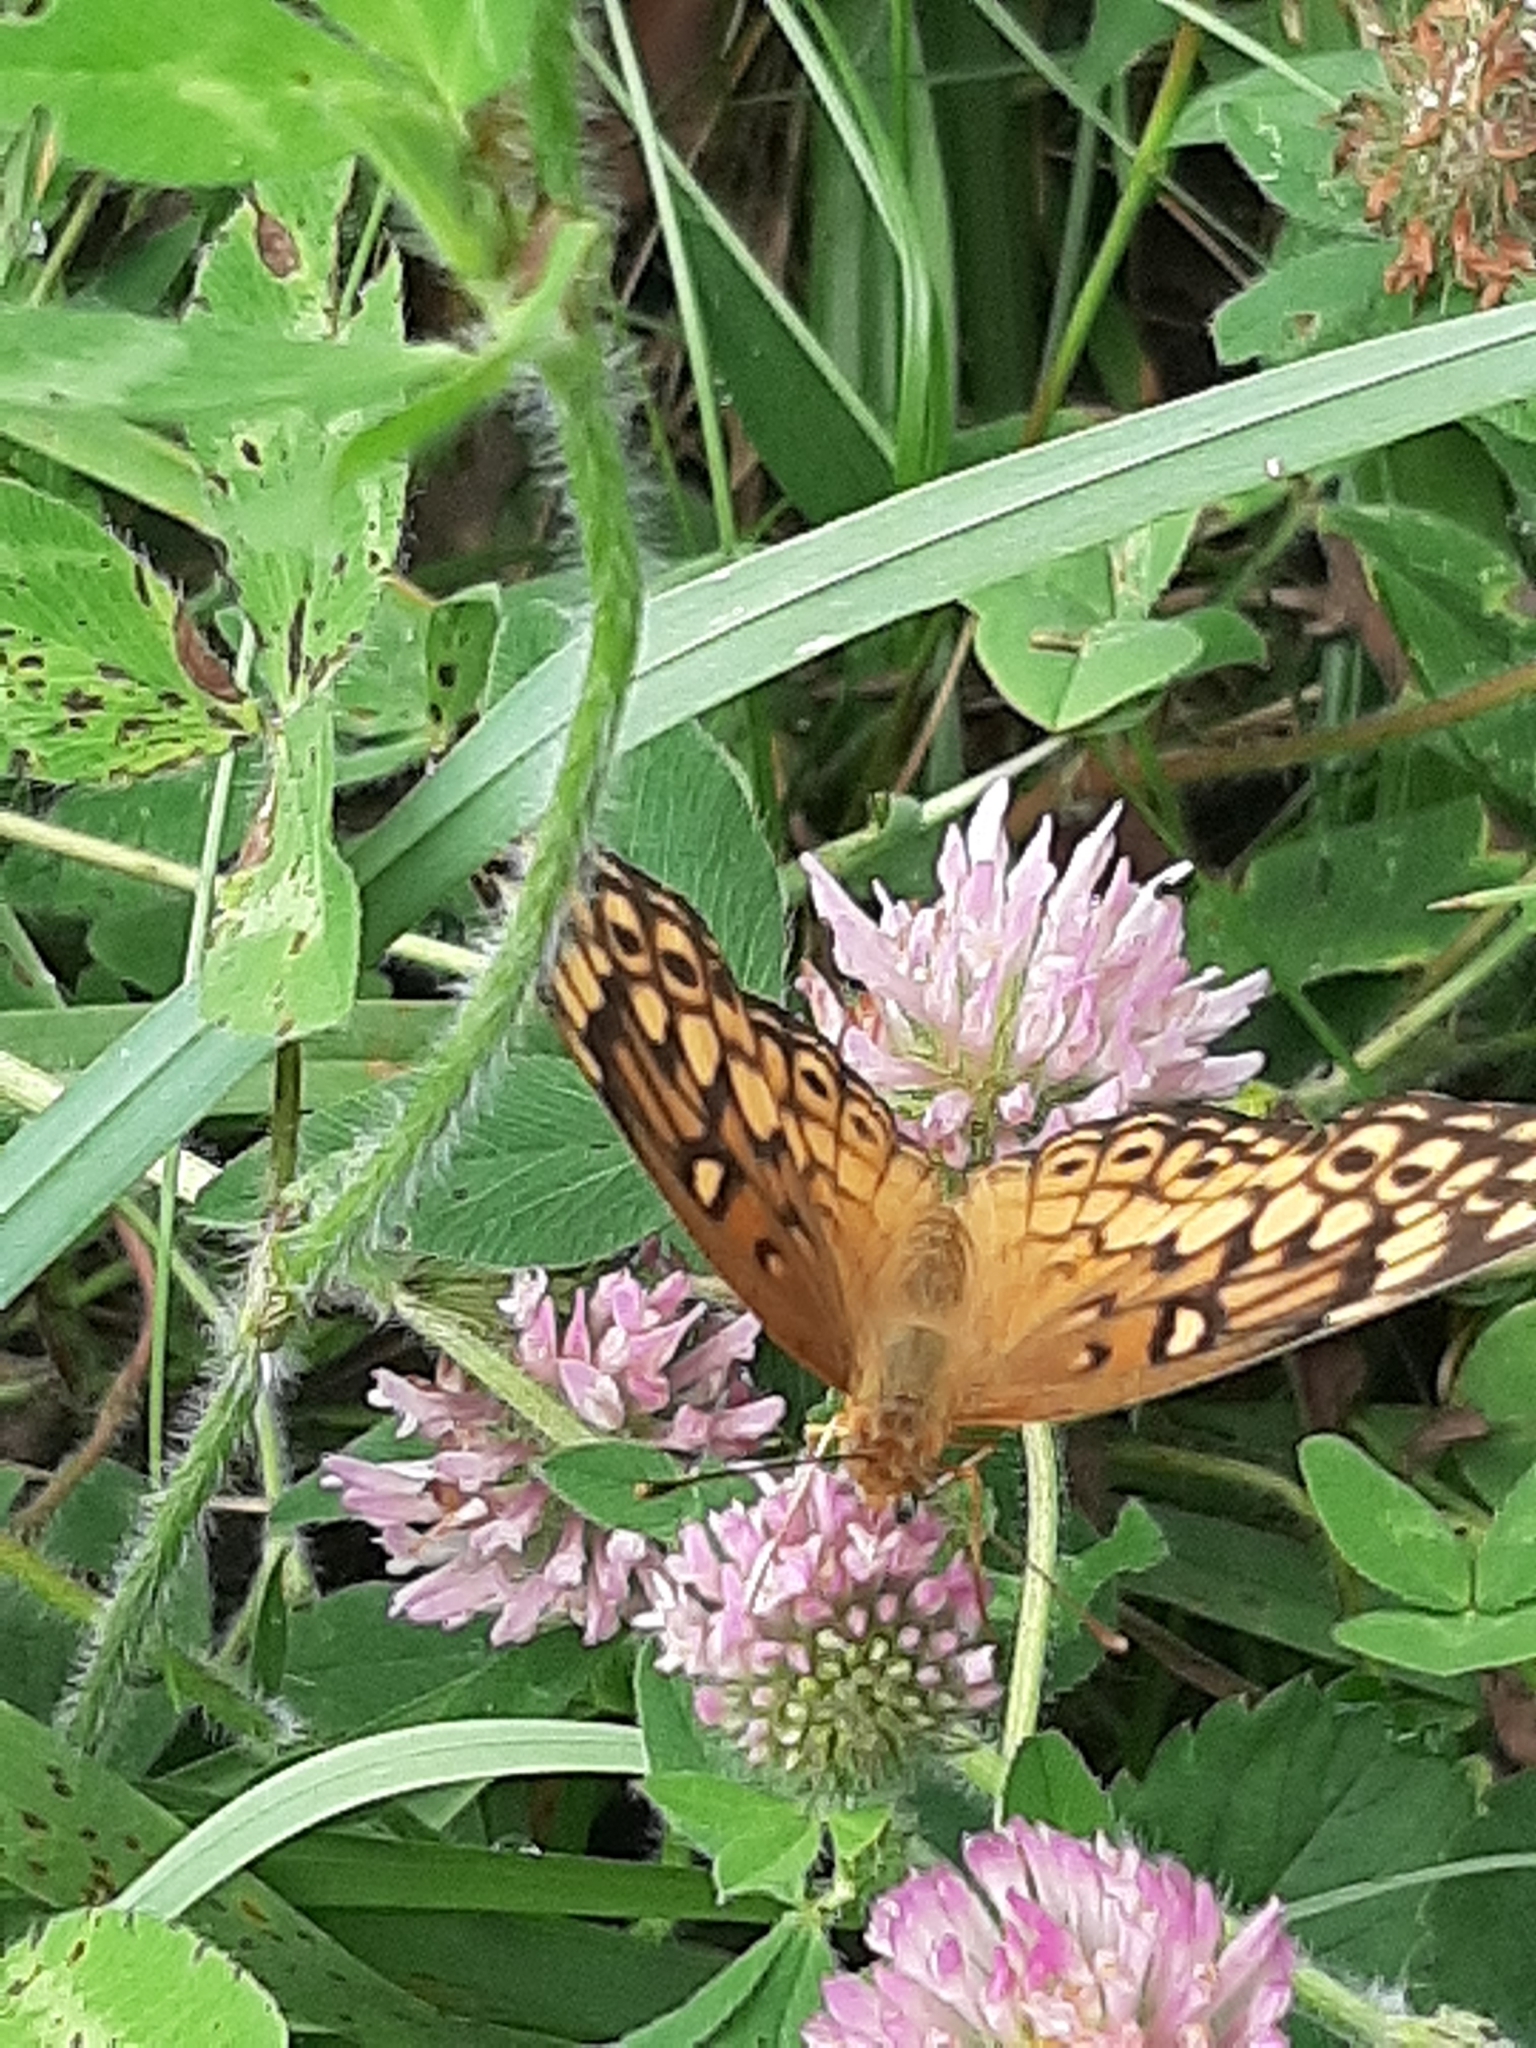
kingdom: Animalia
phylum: Arthropoda
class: Insecta
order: Lepidoptera
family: Nymphalidae
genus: Euptoieta
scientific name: Euptoieta claudia
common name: Variegated fritillary
